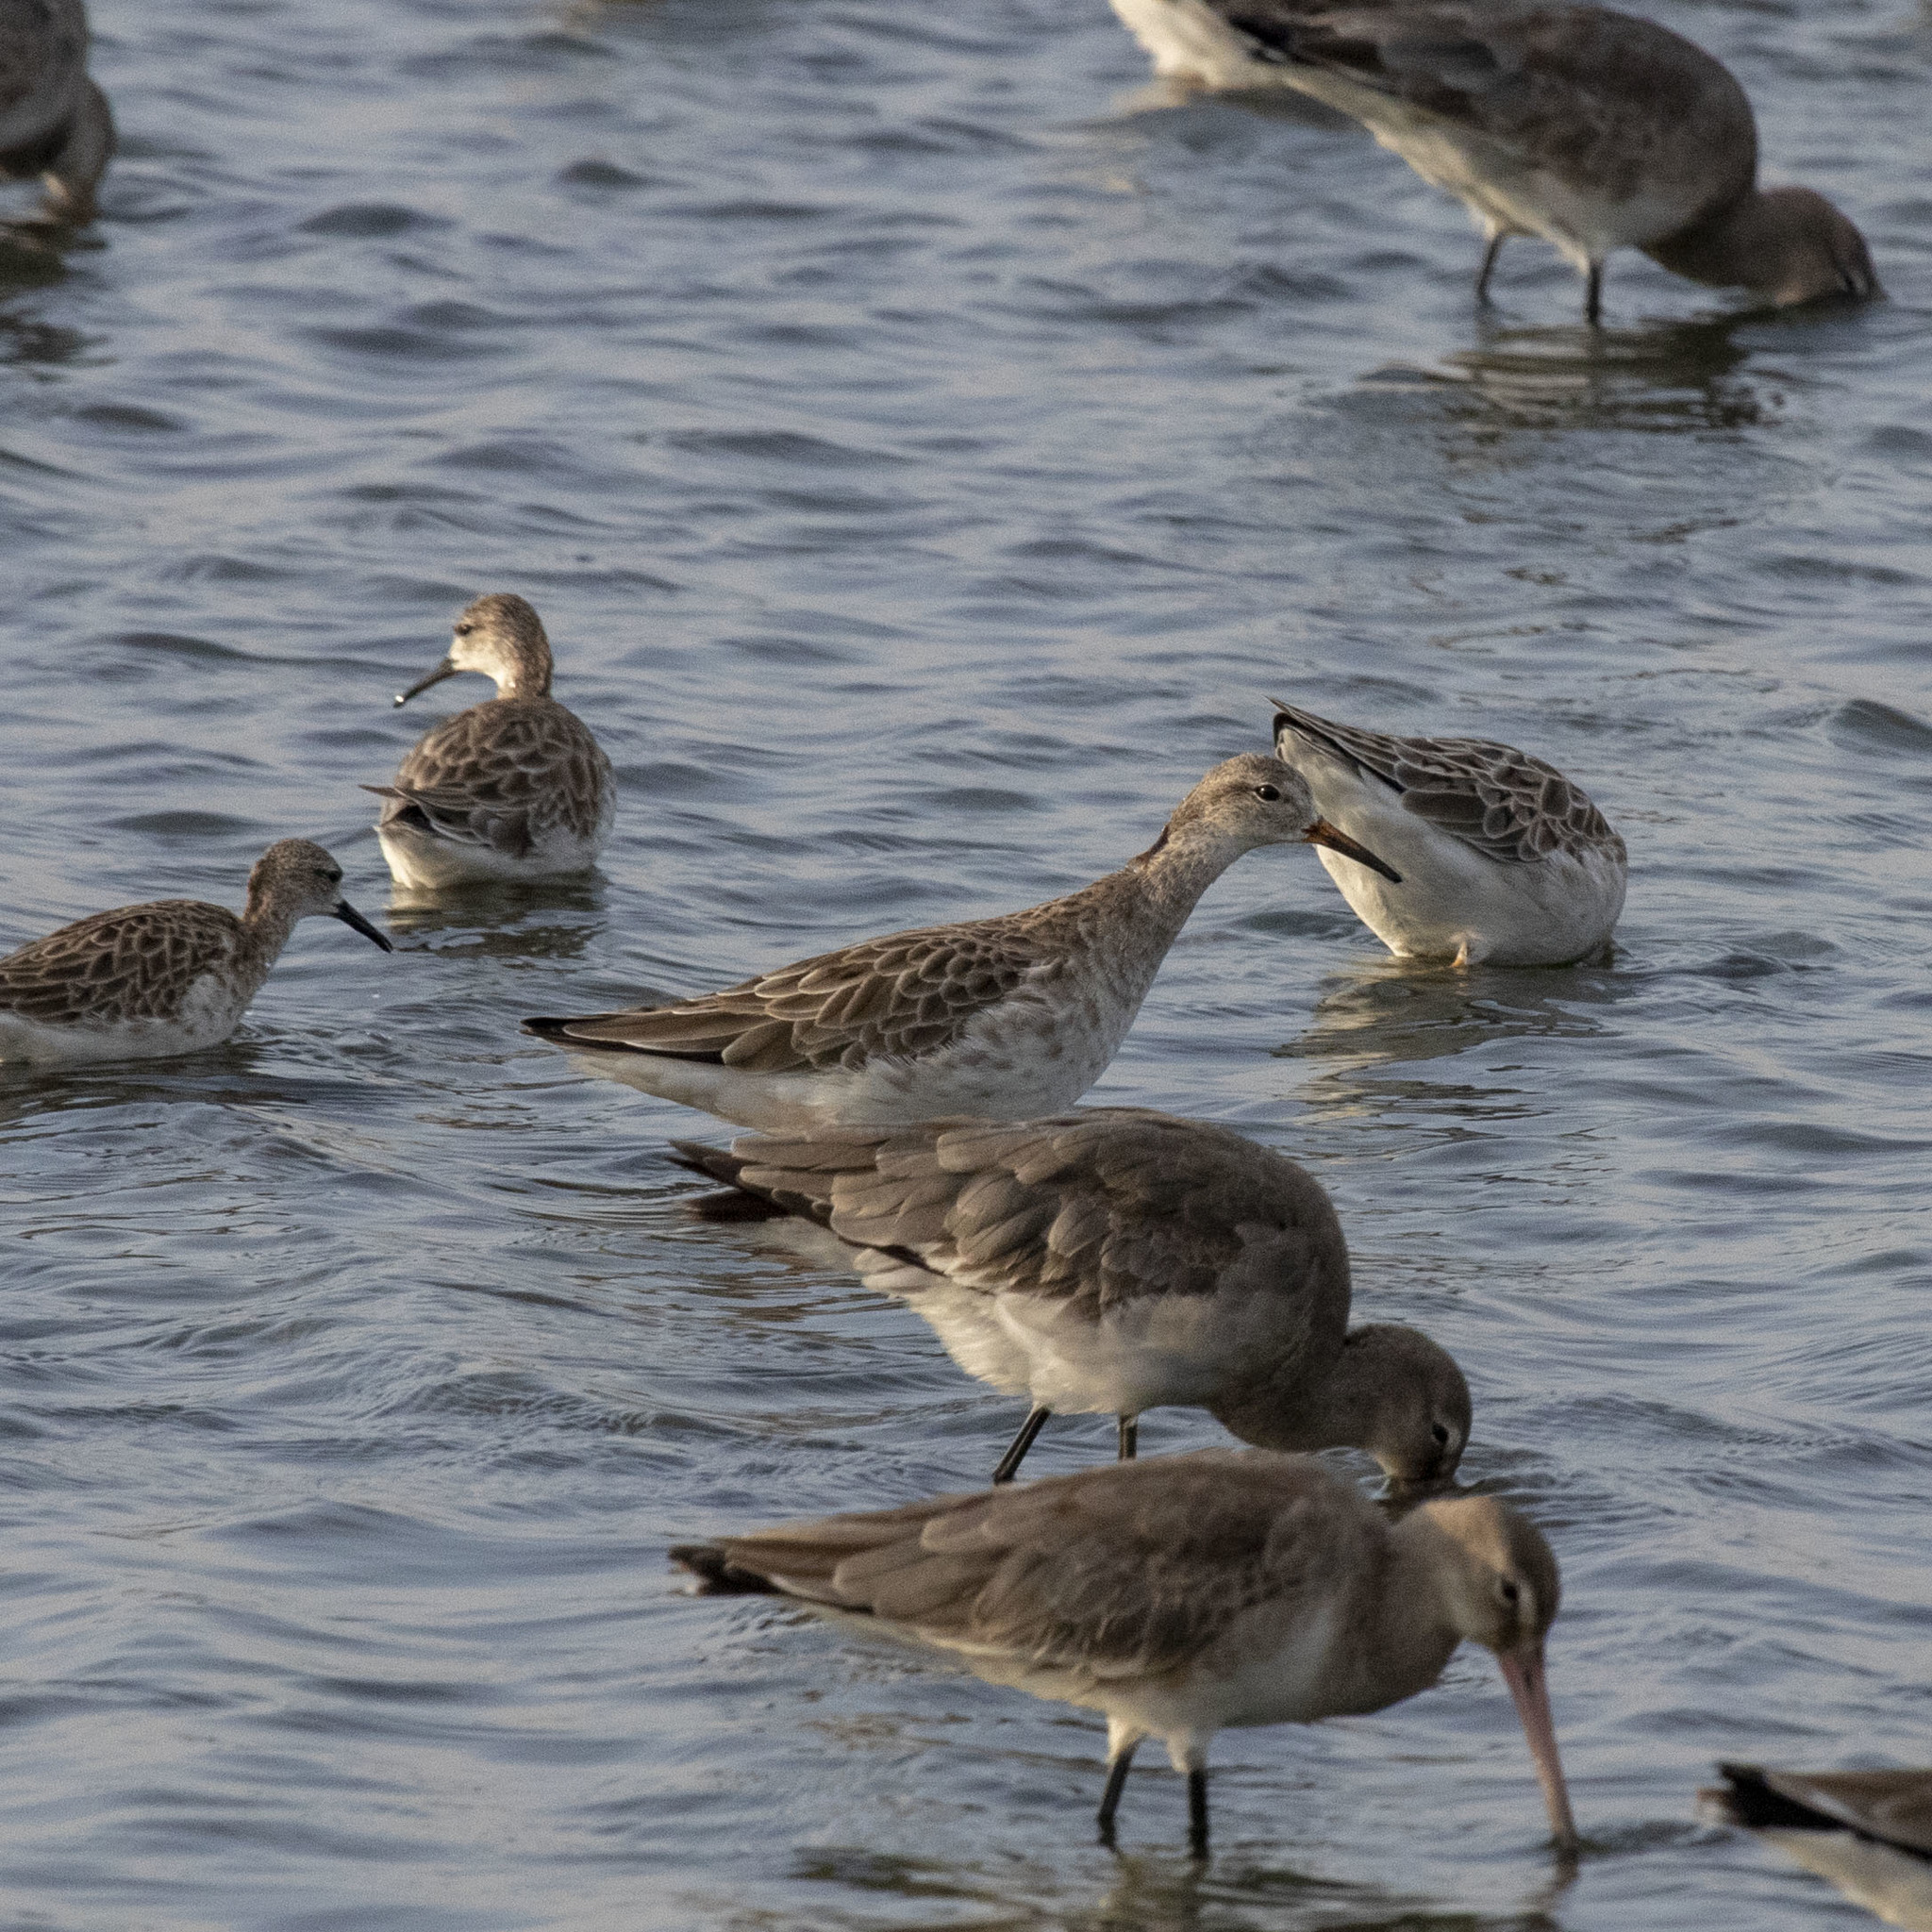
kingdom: Animalia
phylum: Chordata
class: Aves
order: Charadriiformes
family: Scolopacidae
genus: Calidris
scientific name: Calidris pugnax
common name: Ruff
